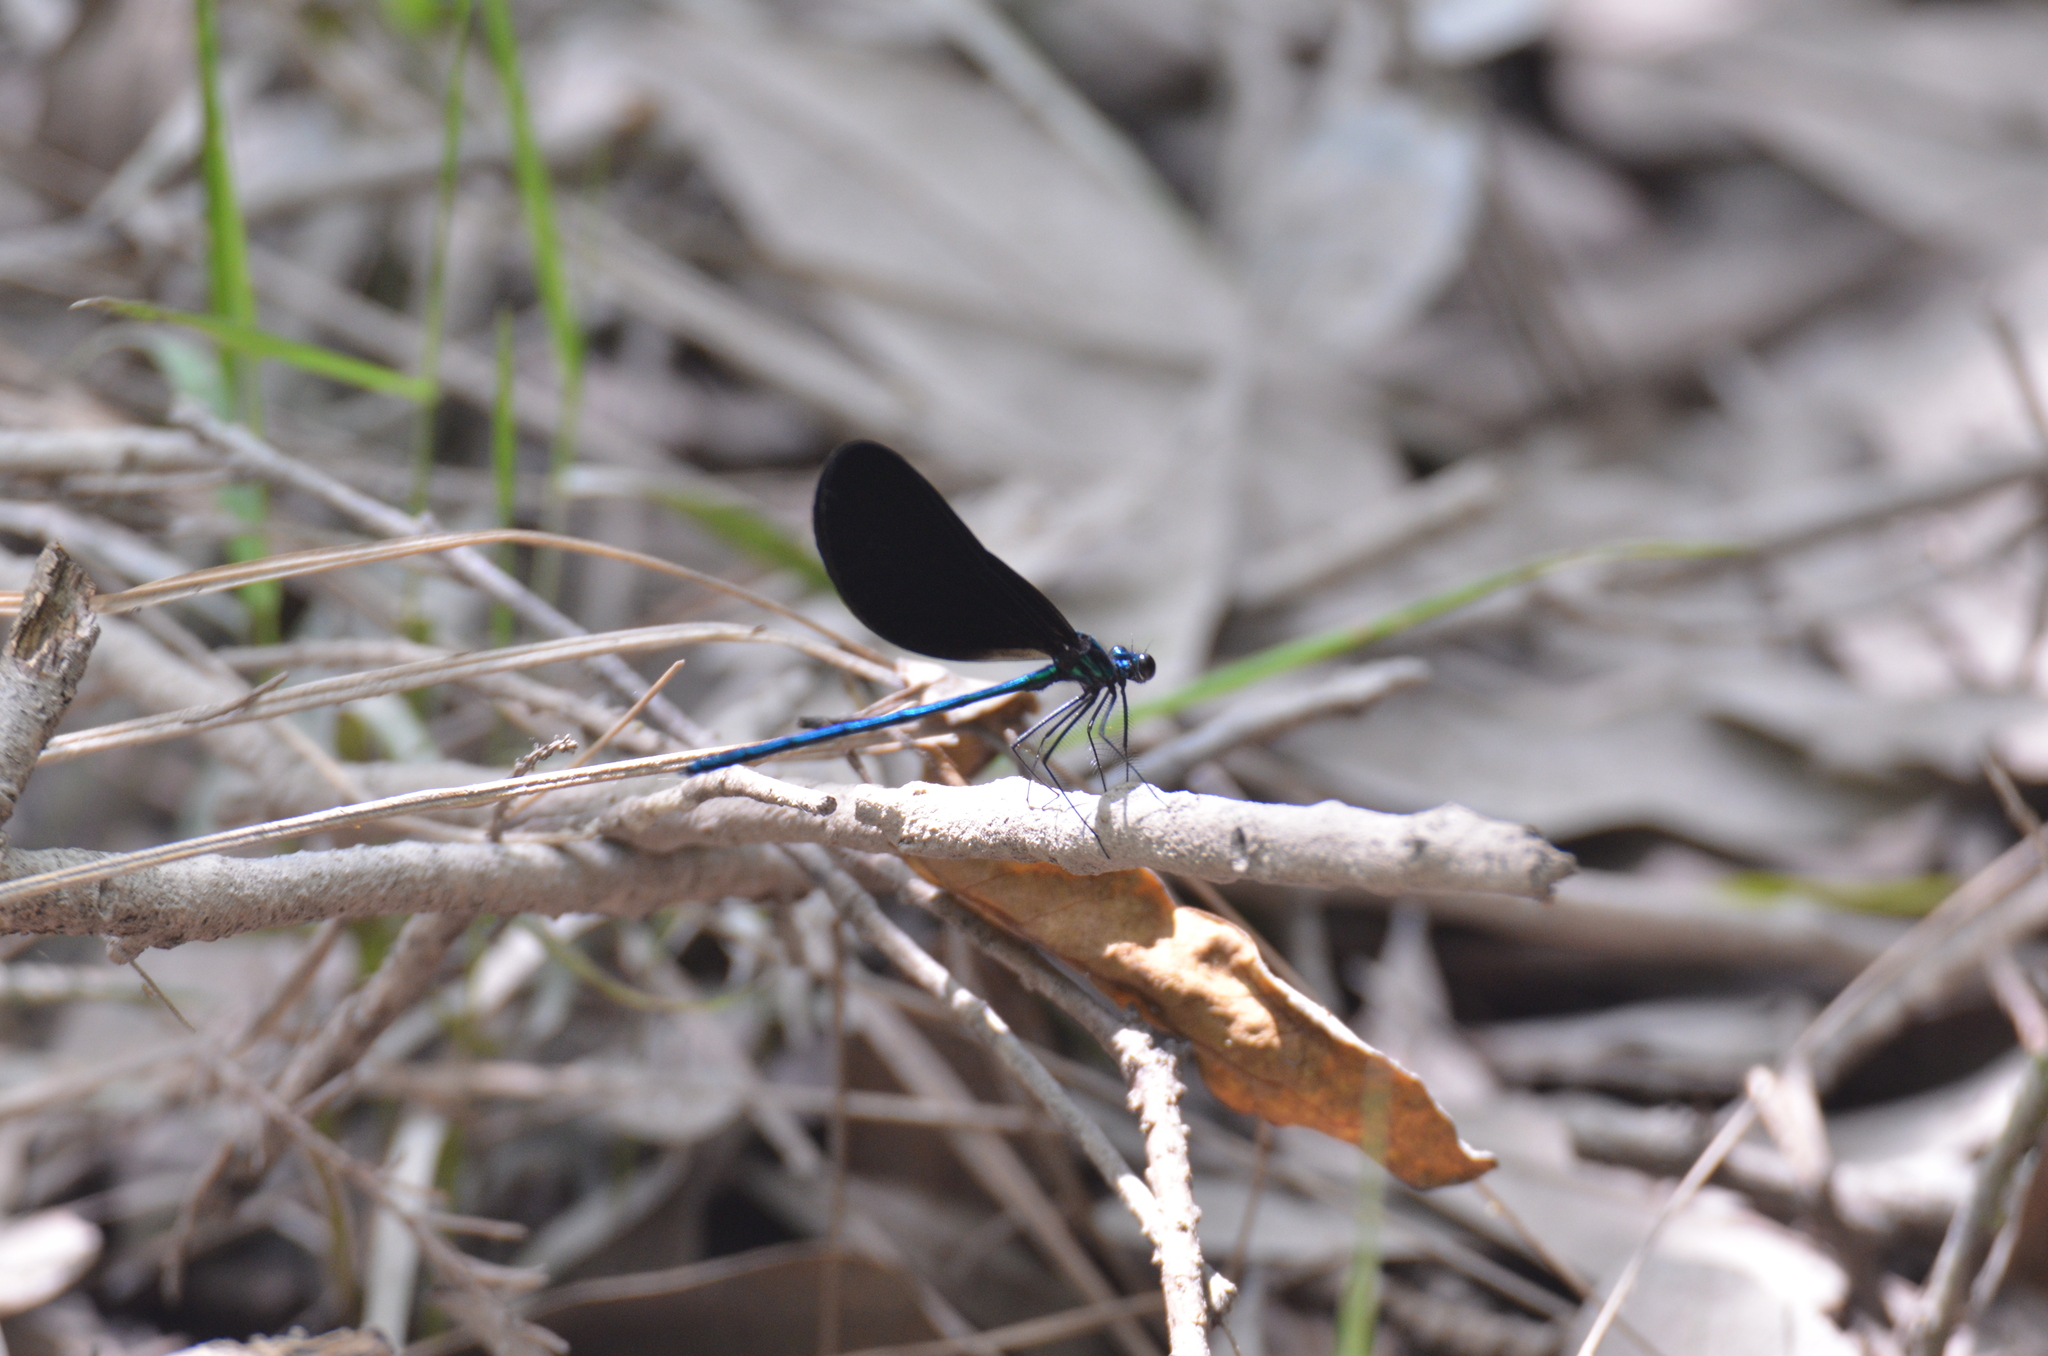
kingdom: Animalia
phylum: Arthropoda
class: Insecta
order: Odonata
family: Calopterygidae
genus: Calopteryx
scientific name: Calopteryx maculata
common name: Ebony jewelwing
